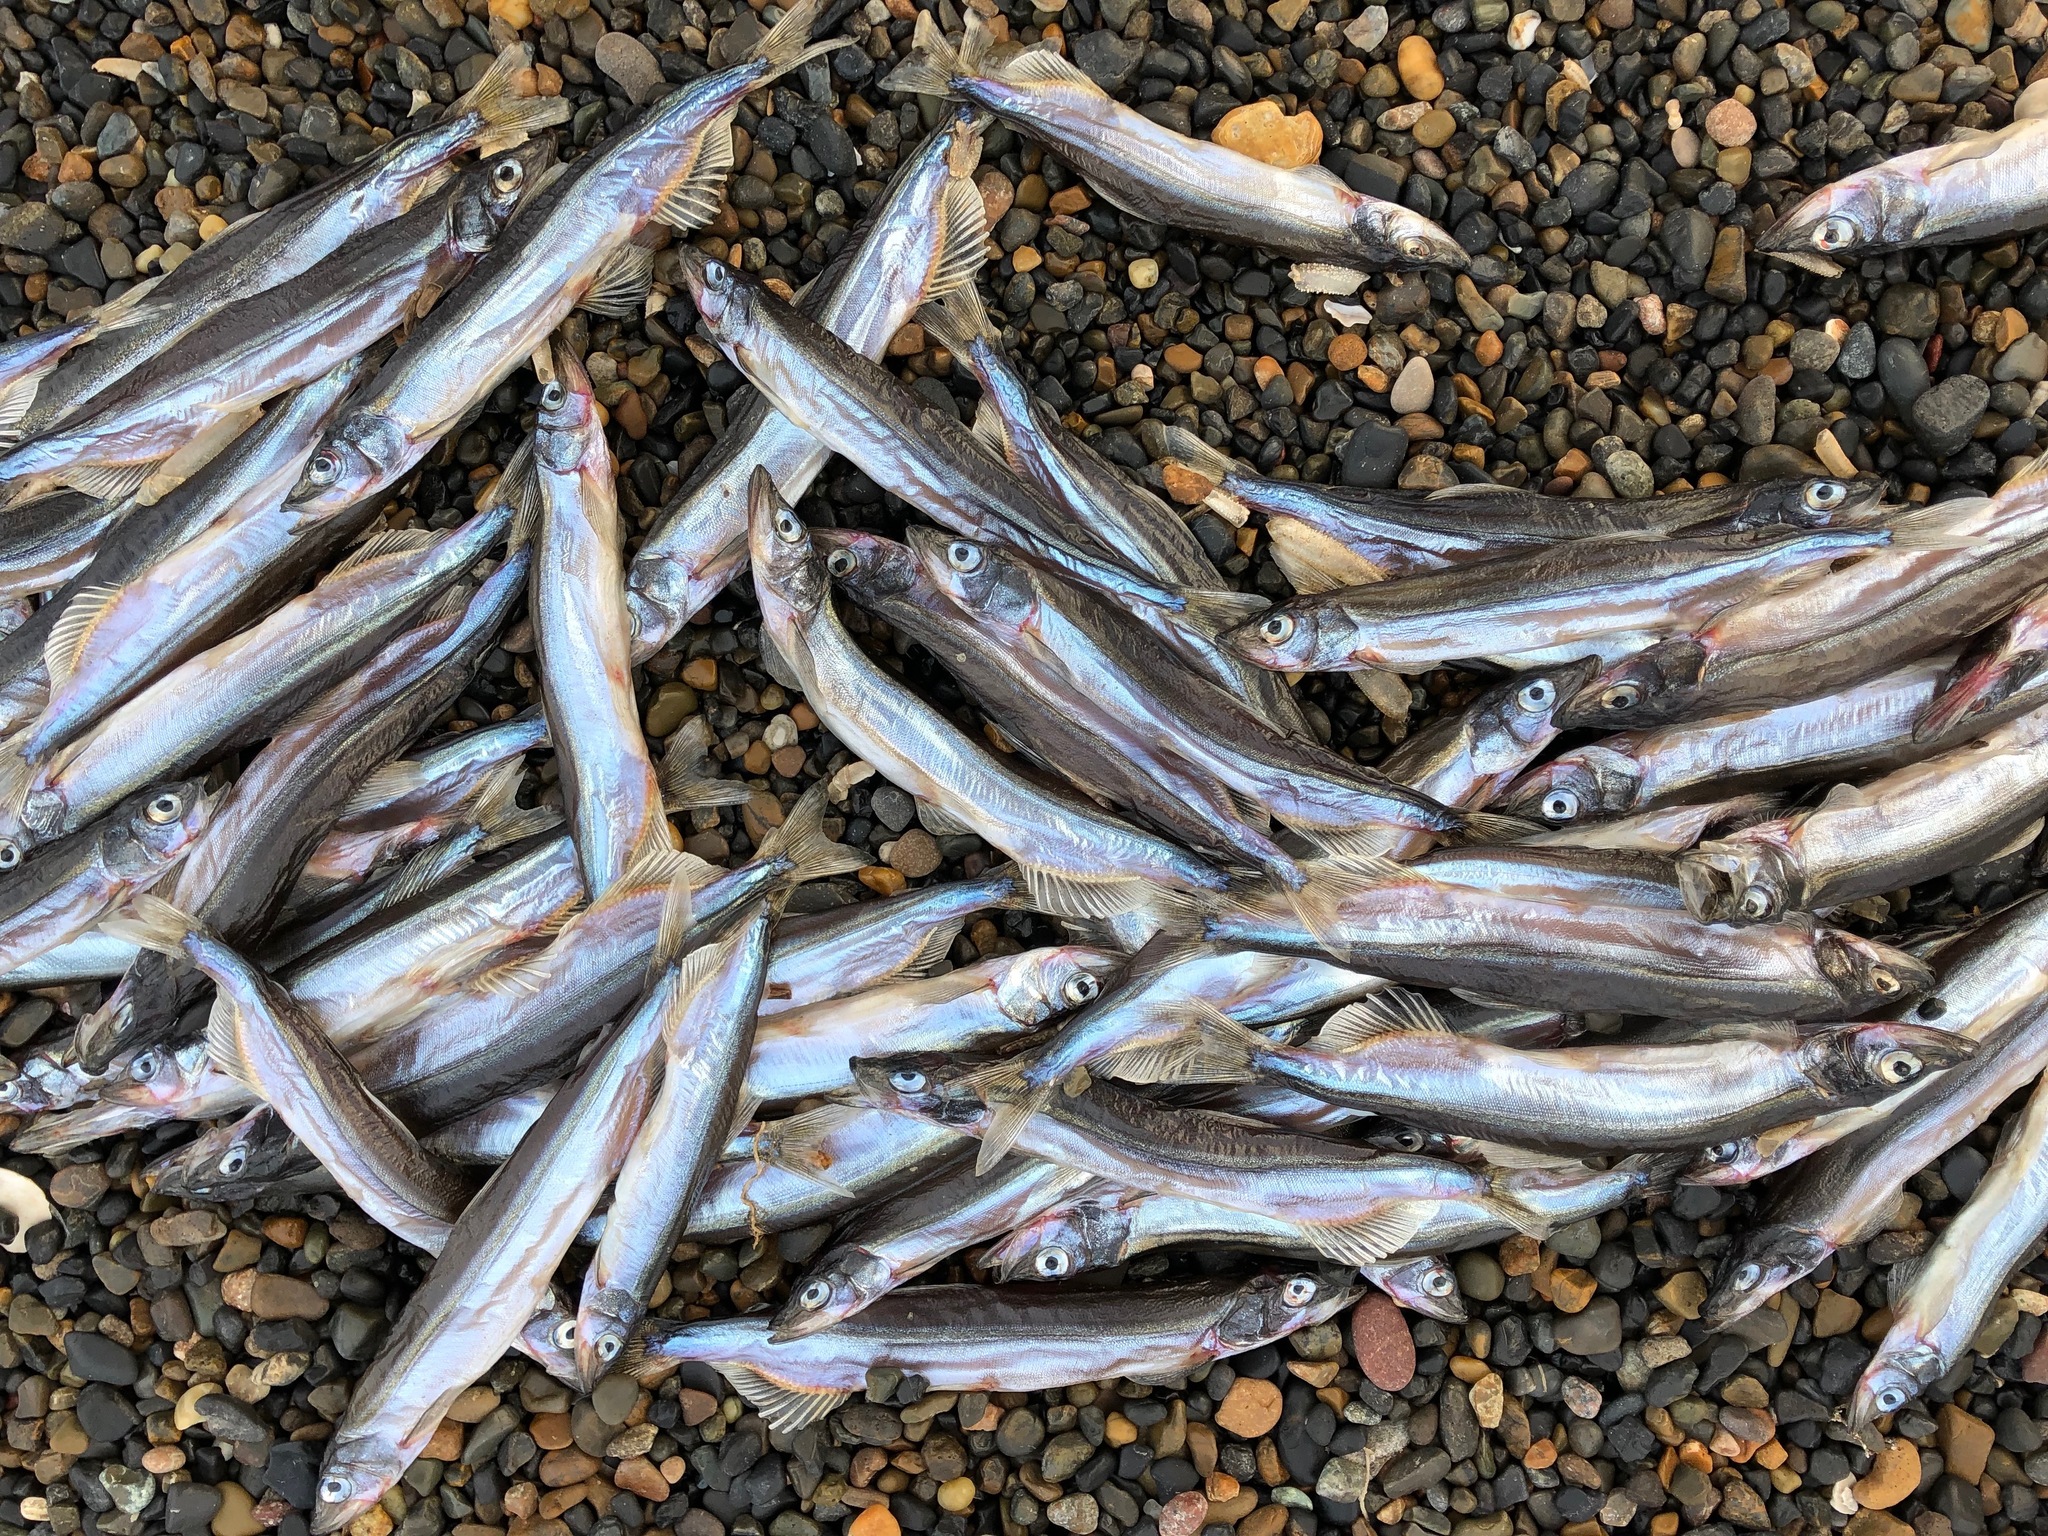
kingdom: Animalia
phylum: Chordata
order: Osmeriformes
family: Osmeridae
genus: Mallotus
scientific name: Mallotus villosus
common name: Capelin
